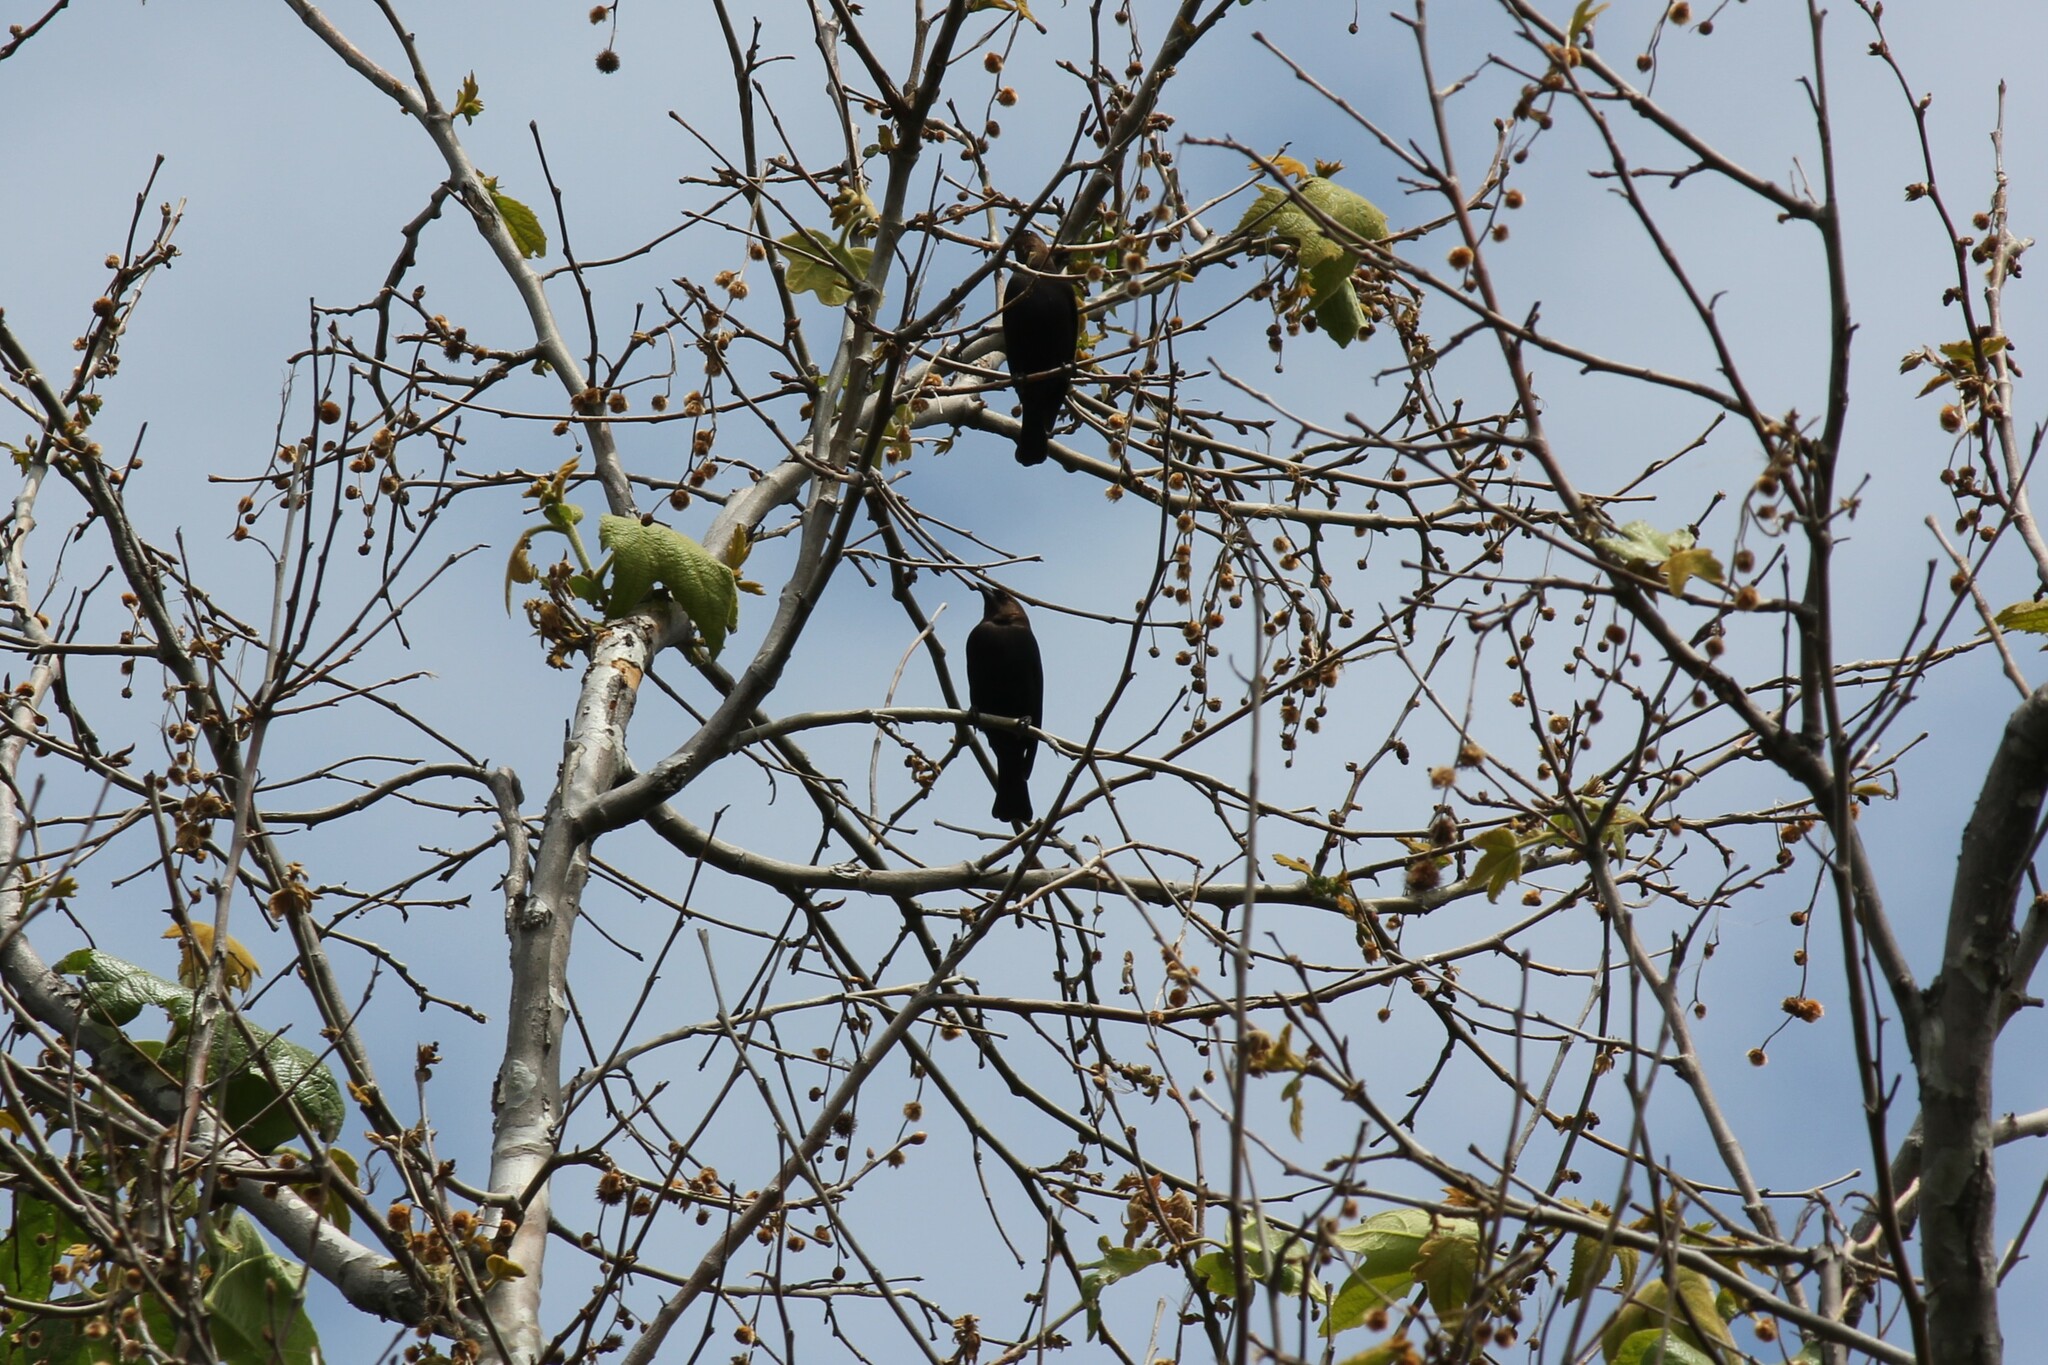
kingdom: Animalia
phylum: Chordata
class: Aves
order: Passeriformes
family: Icteridae
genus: Molothrus
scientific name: Molothrus ater
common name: Brown-headed cowbird
